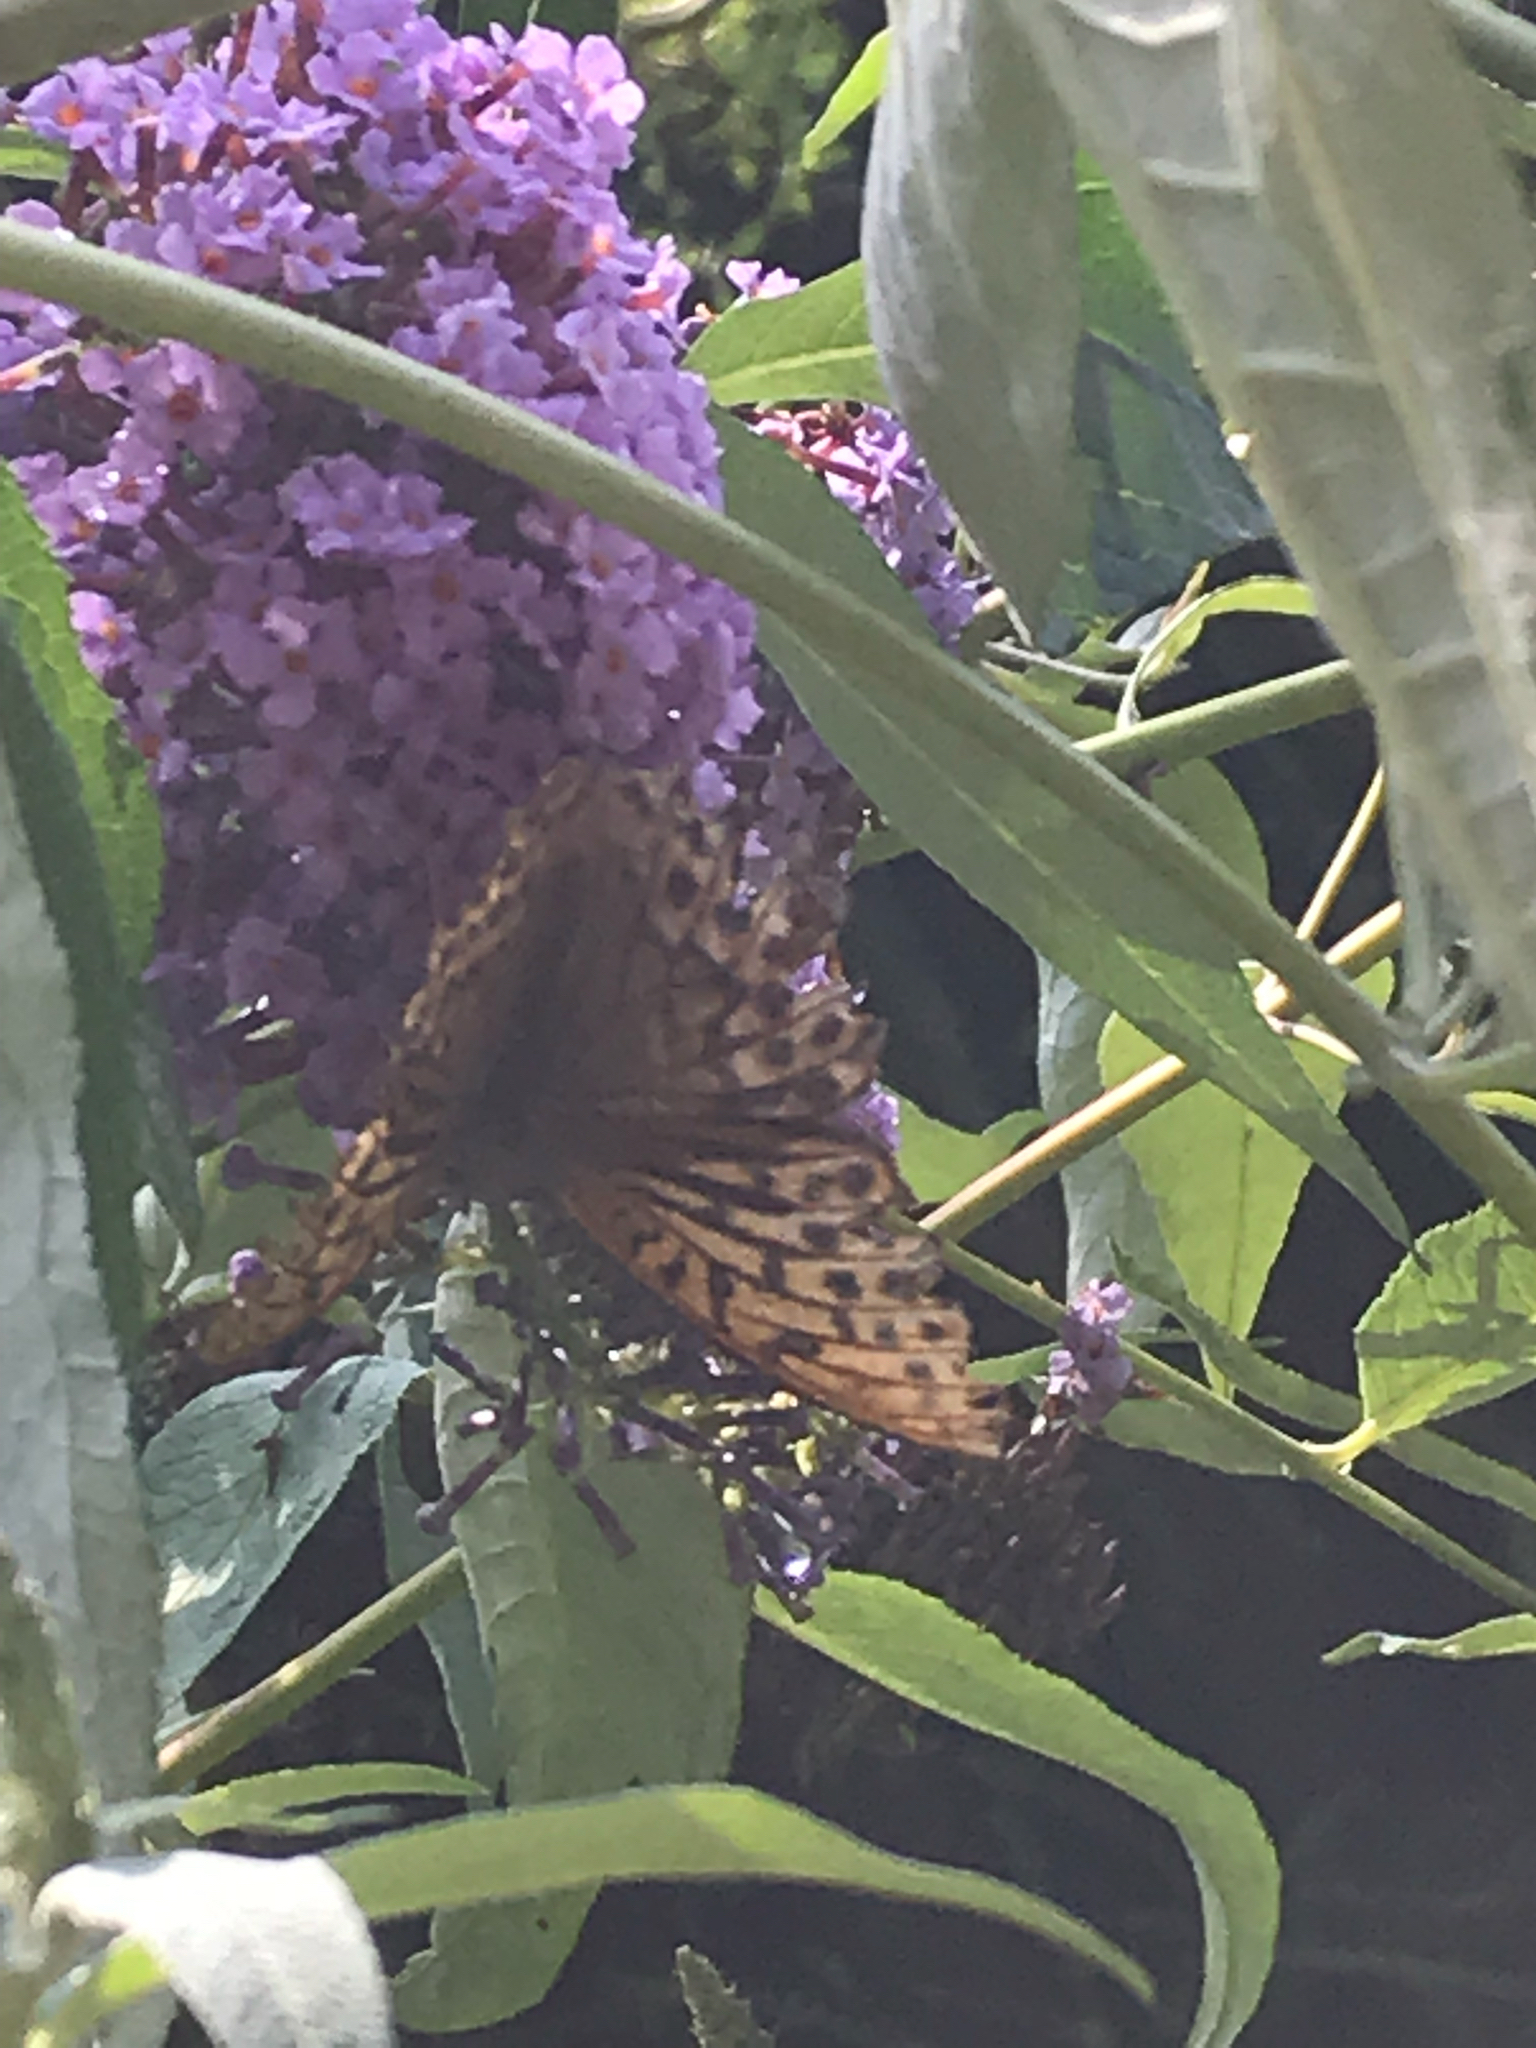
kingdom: Animalia
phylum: Arthropoda
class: Insecta
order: Lepidoptera
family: Nymphalidae
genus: Argynnis
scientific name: Argynnis paphia
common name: Silver-washed fritillary
